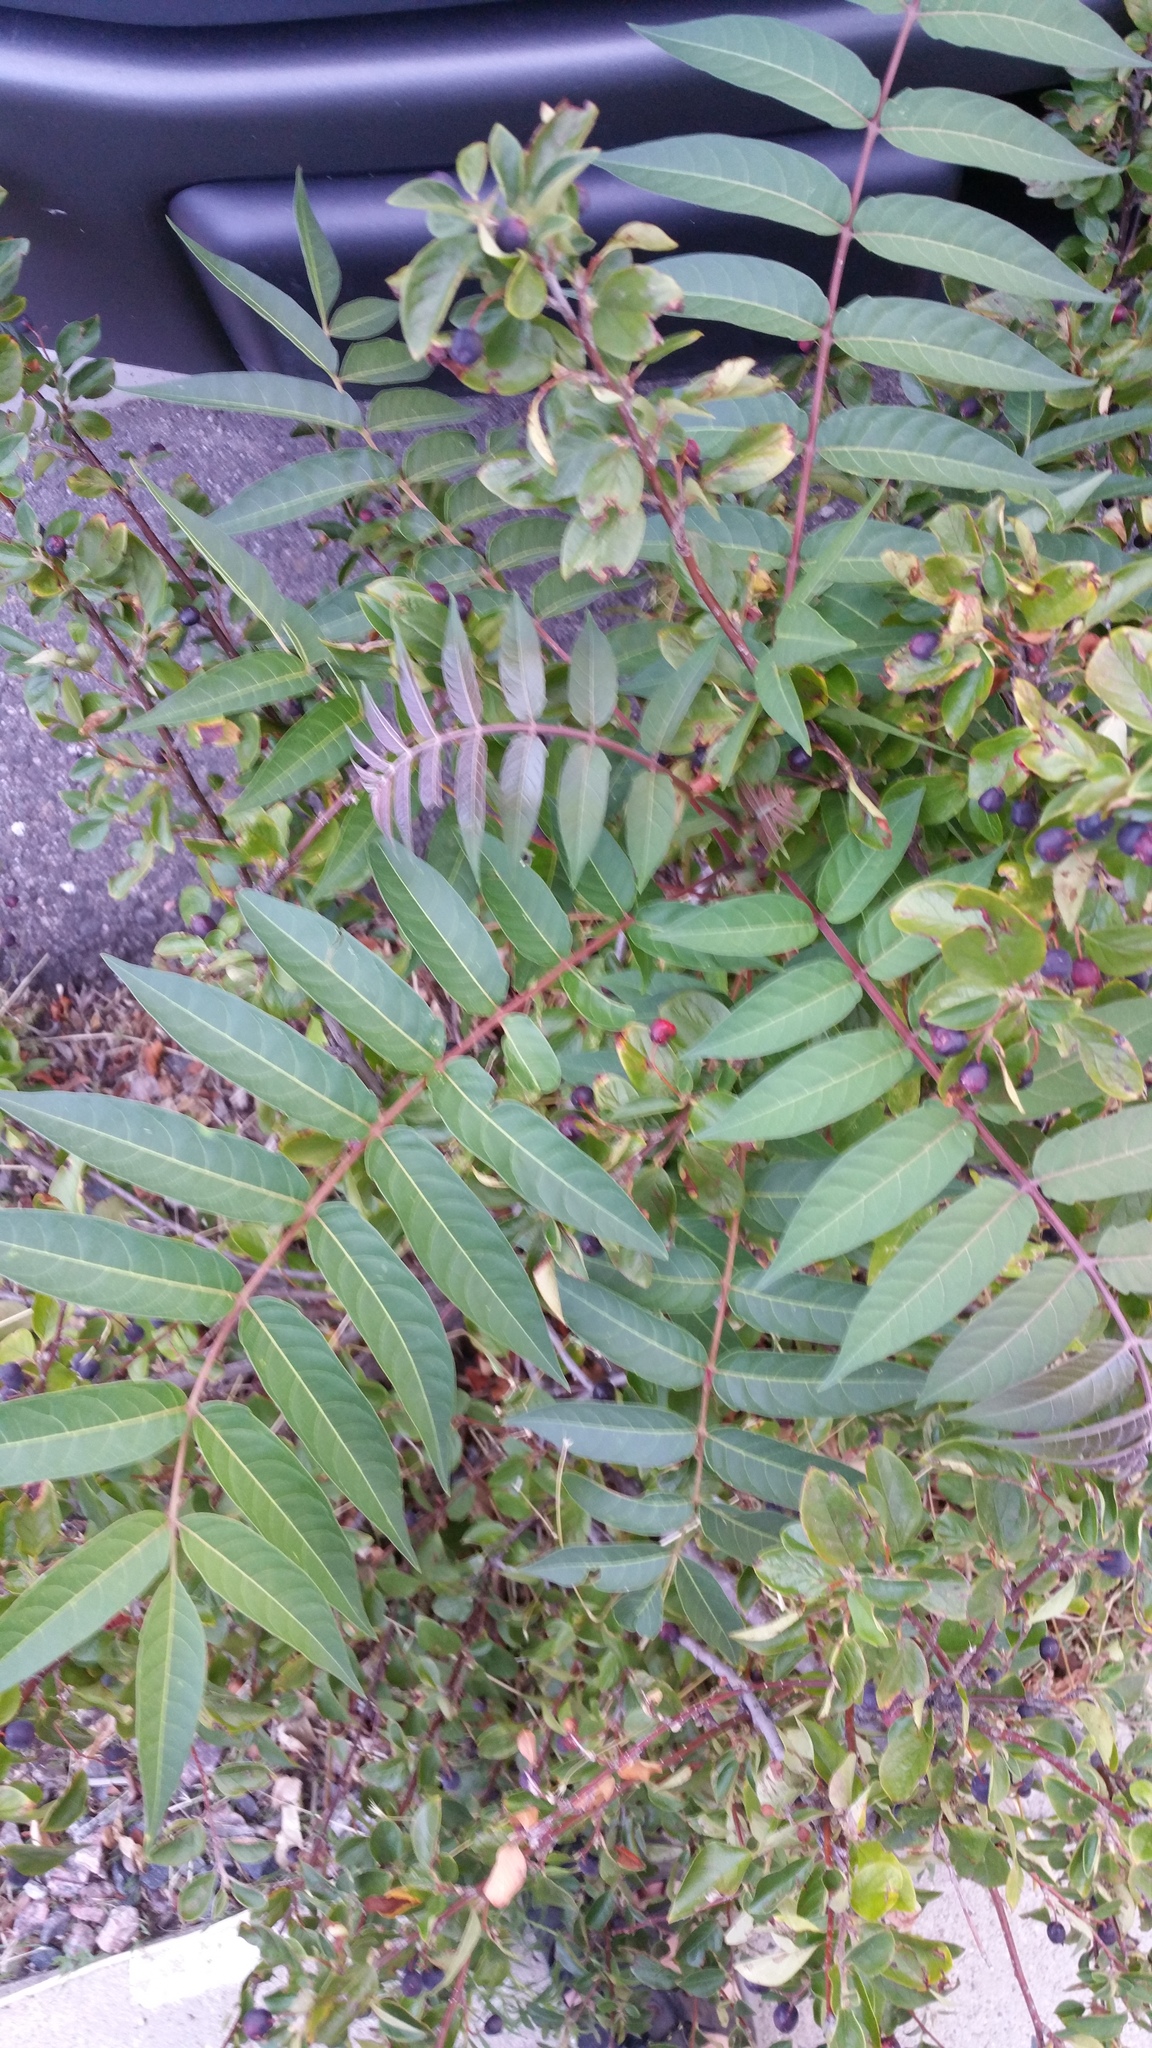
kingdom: Plantae
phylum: Tracheophyta
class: Magnoliopsida
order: Sapindales
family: Simaroubaceae
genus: Ailanthus
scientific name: Ailanthus altissima
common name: Tree-of-heaven
